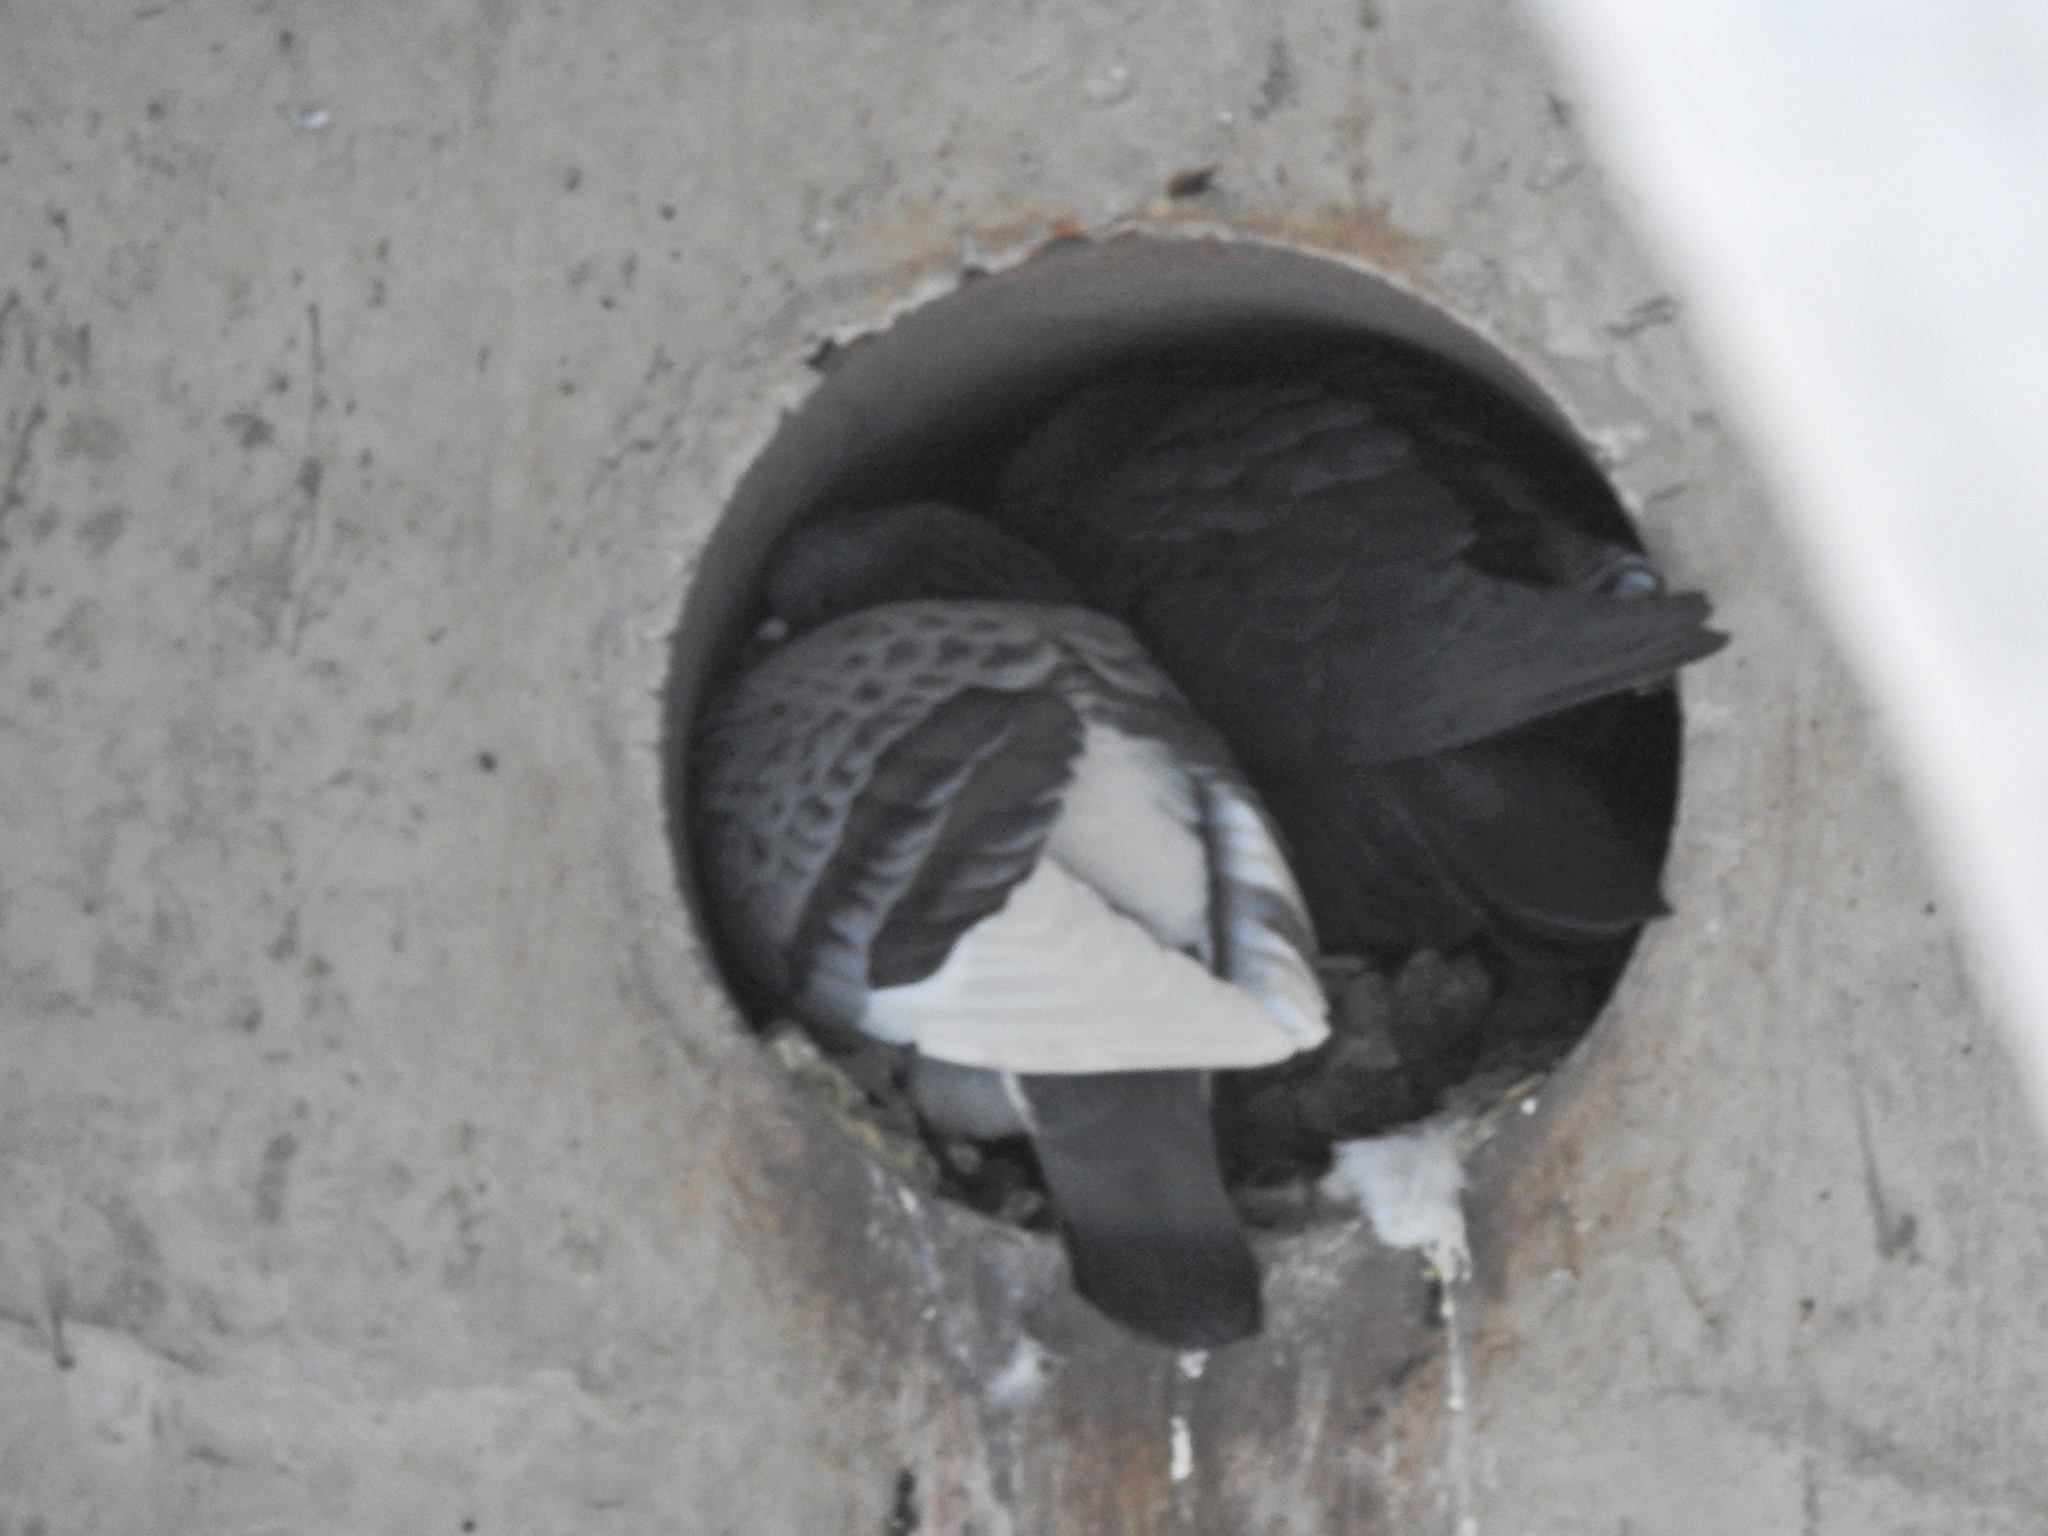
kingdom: Animalia
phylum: Chordata
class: Aves
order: Columbiformes
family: Columbidae
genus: Columba
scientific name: Columba livia
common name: Rock pigeon
